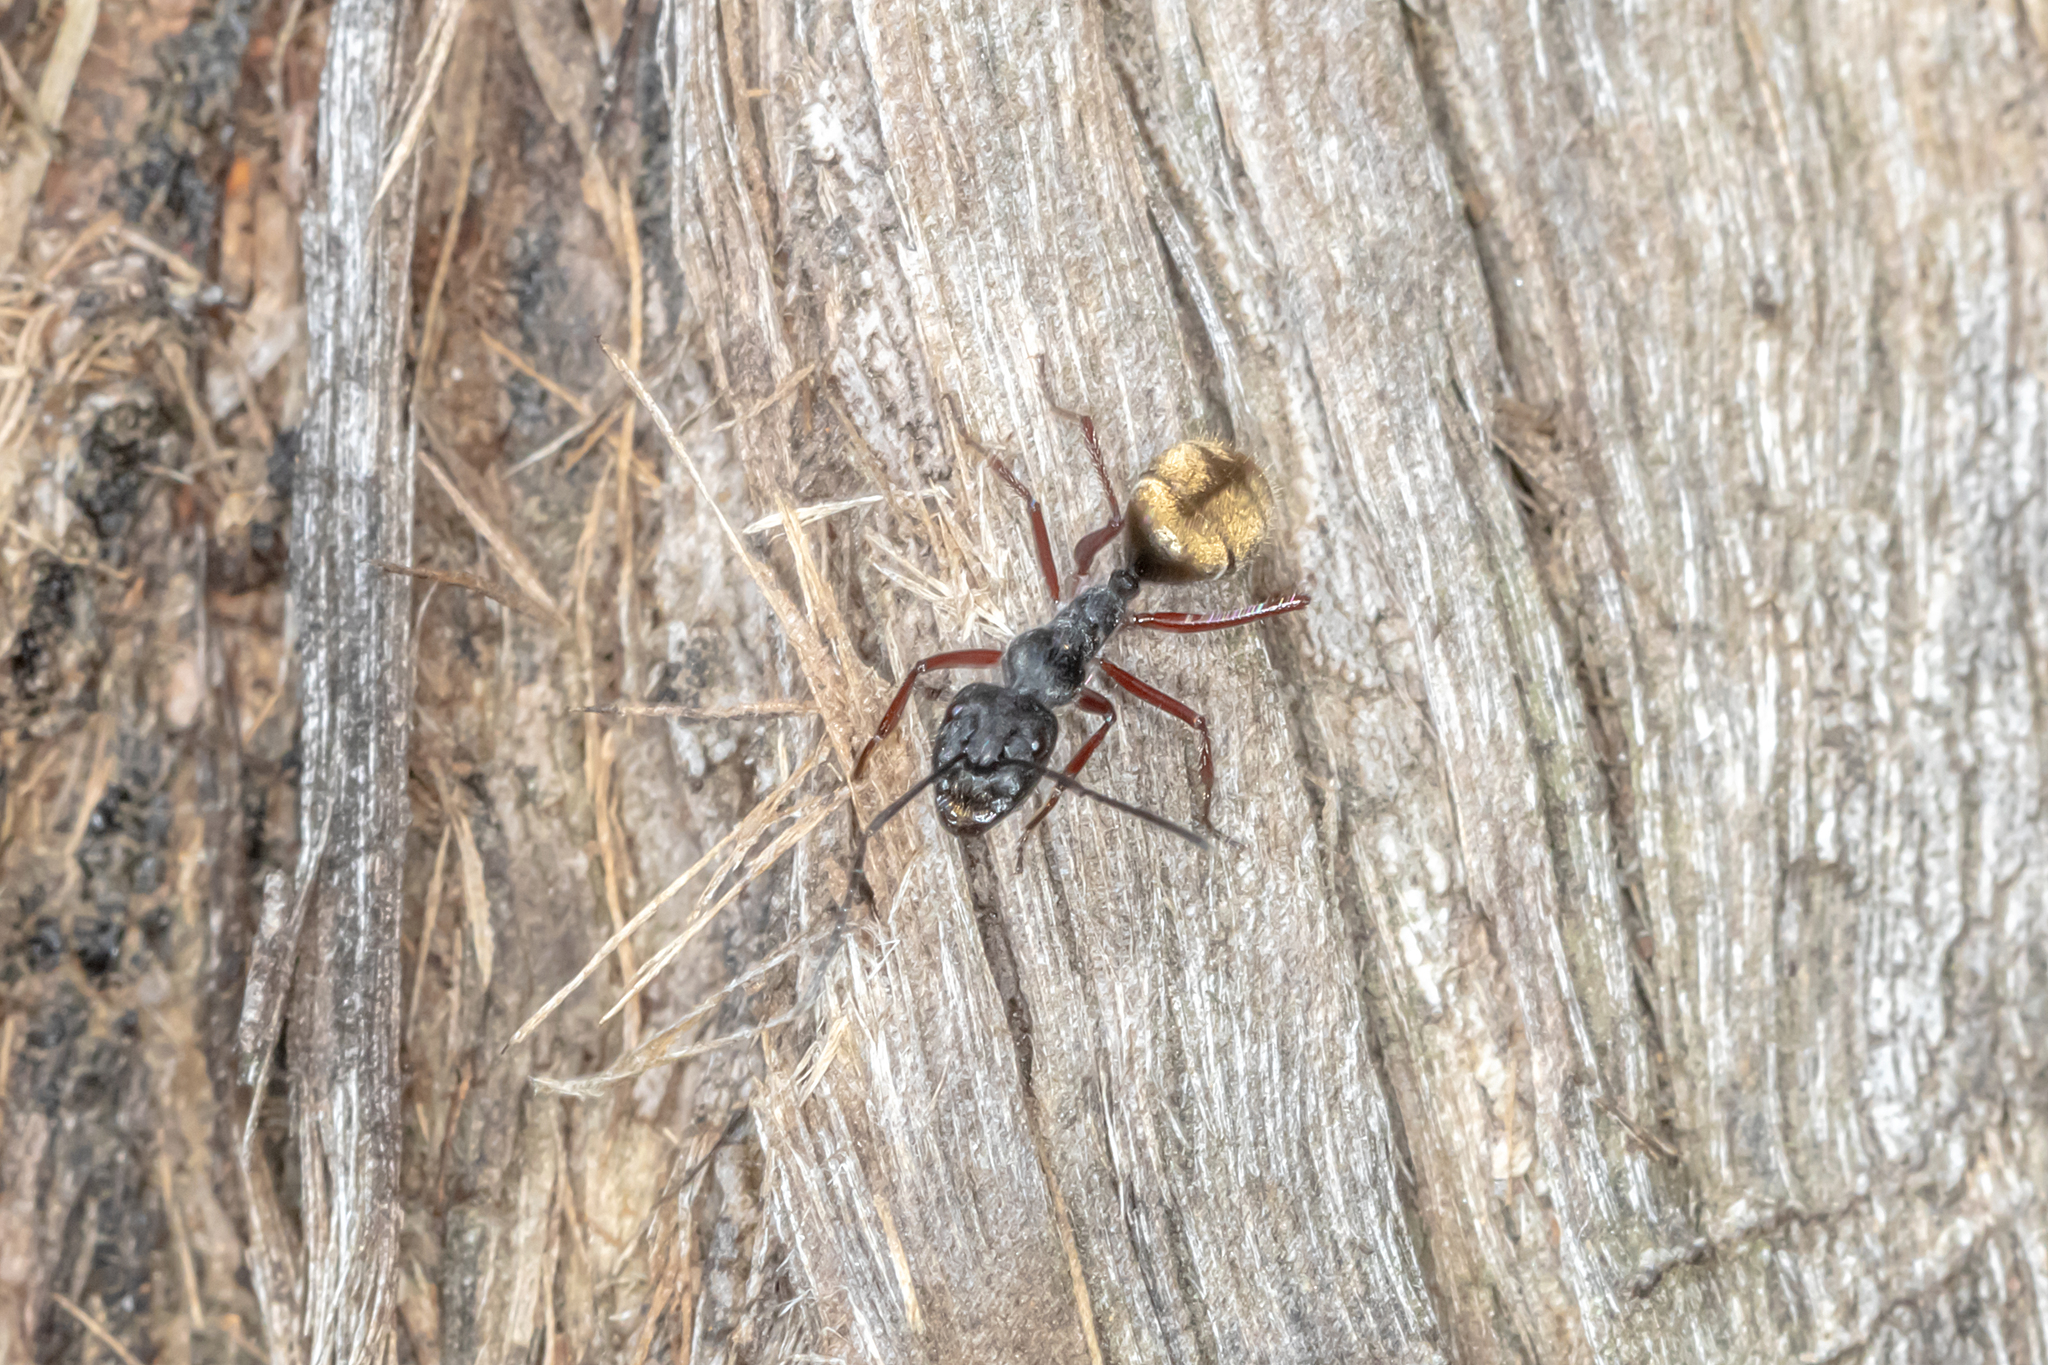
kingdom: Animalia
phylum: Arthropoda
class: Insecta
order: Hymenoptera
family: Formicidae
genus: Camponotus
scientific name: Camponotus suffusus
